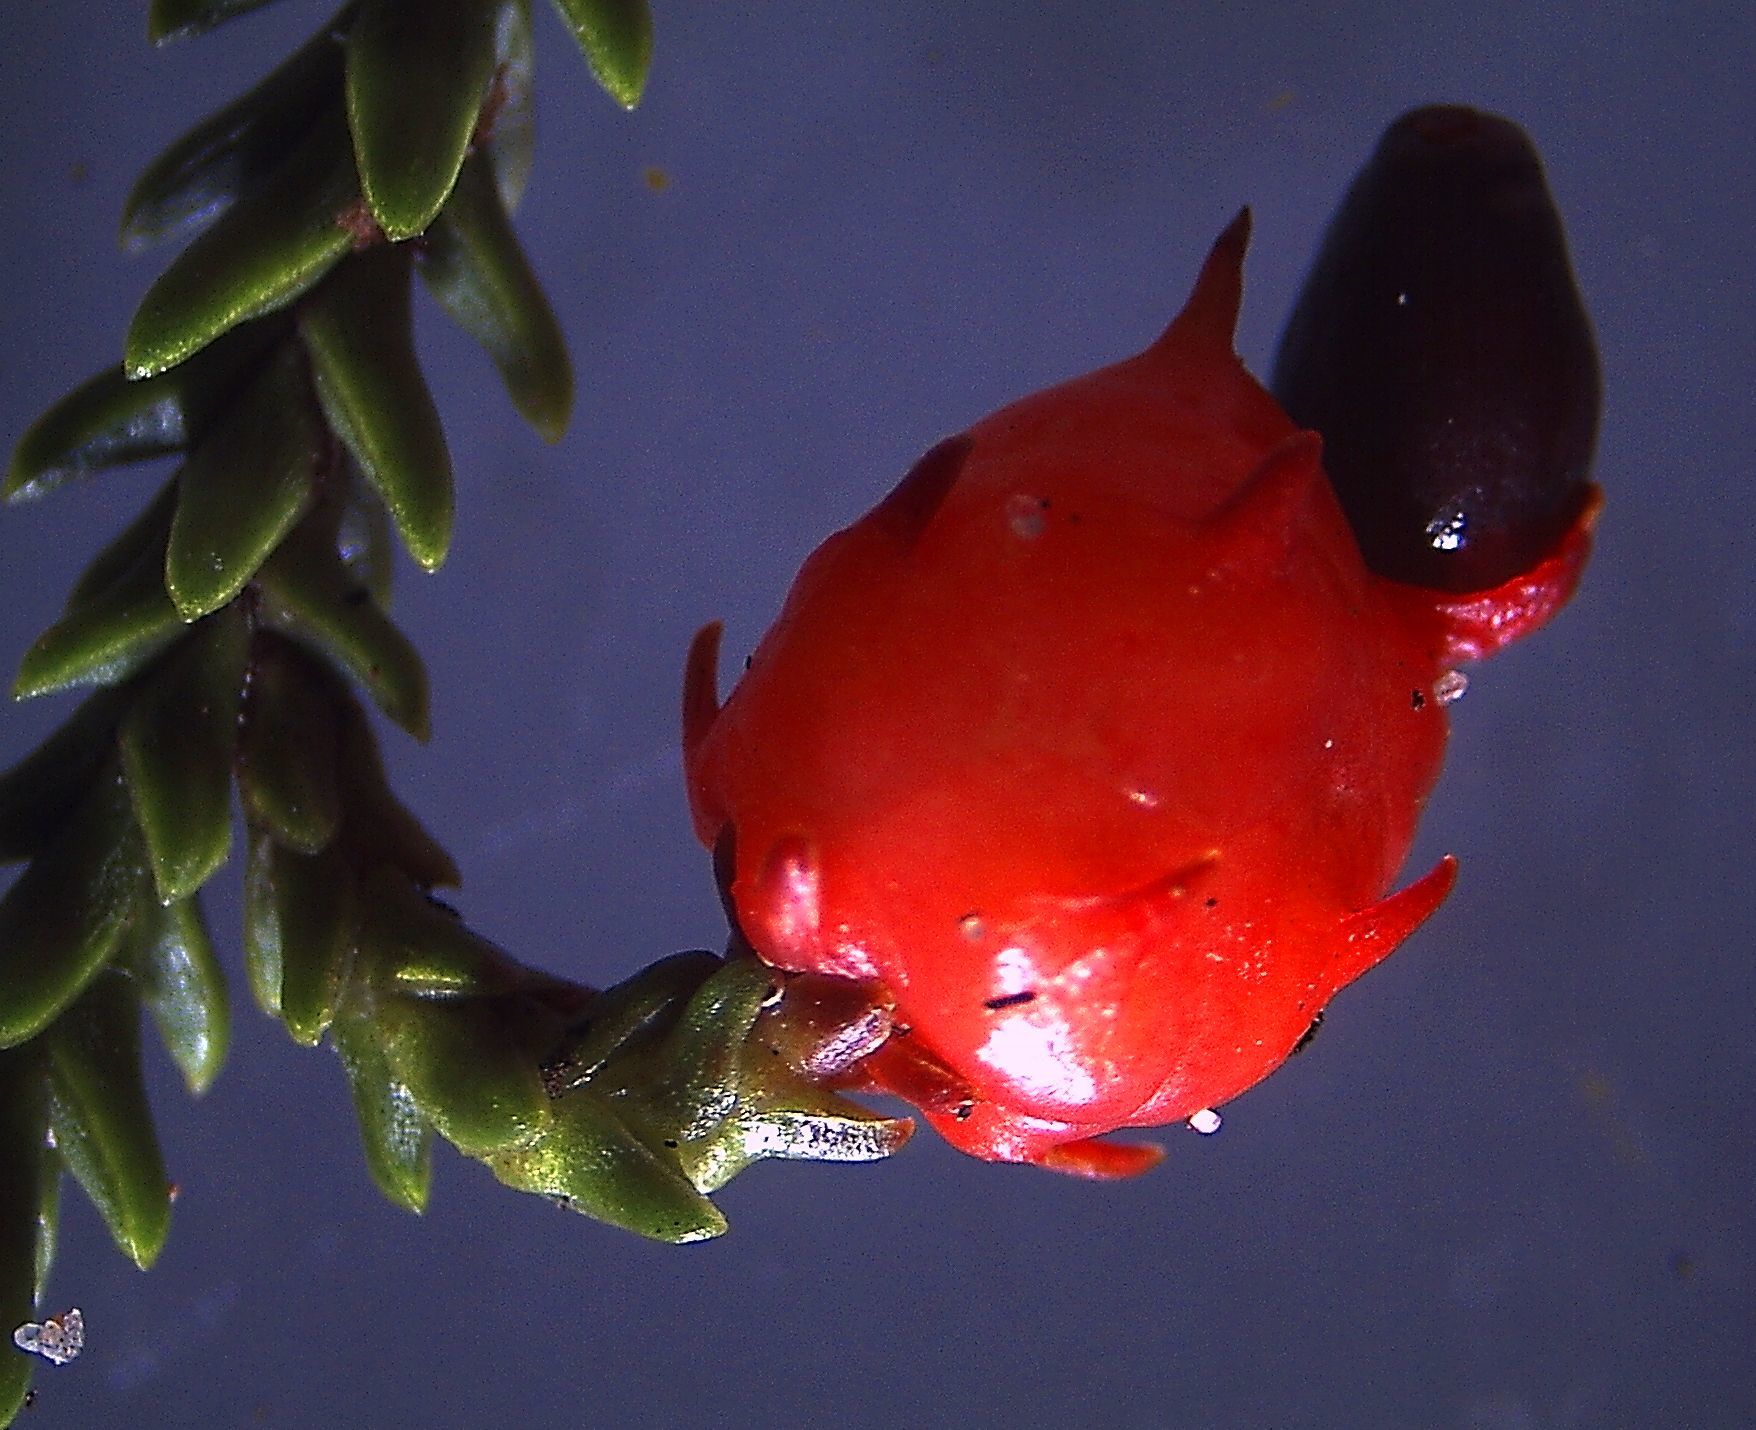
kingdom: Plantae
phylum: Tracheophyta
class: Pinopsida
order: Pinales
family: Podocarpaceae
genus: Dacrydium
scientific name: Dacrydium cupressinum
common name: Red pine
